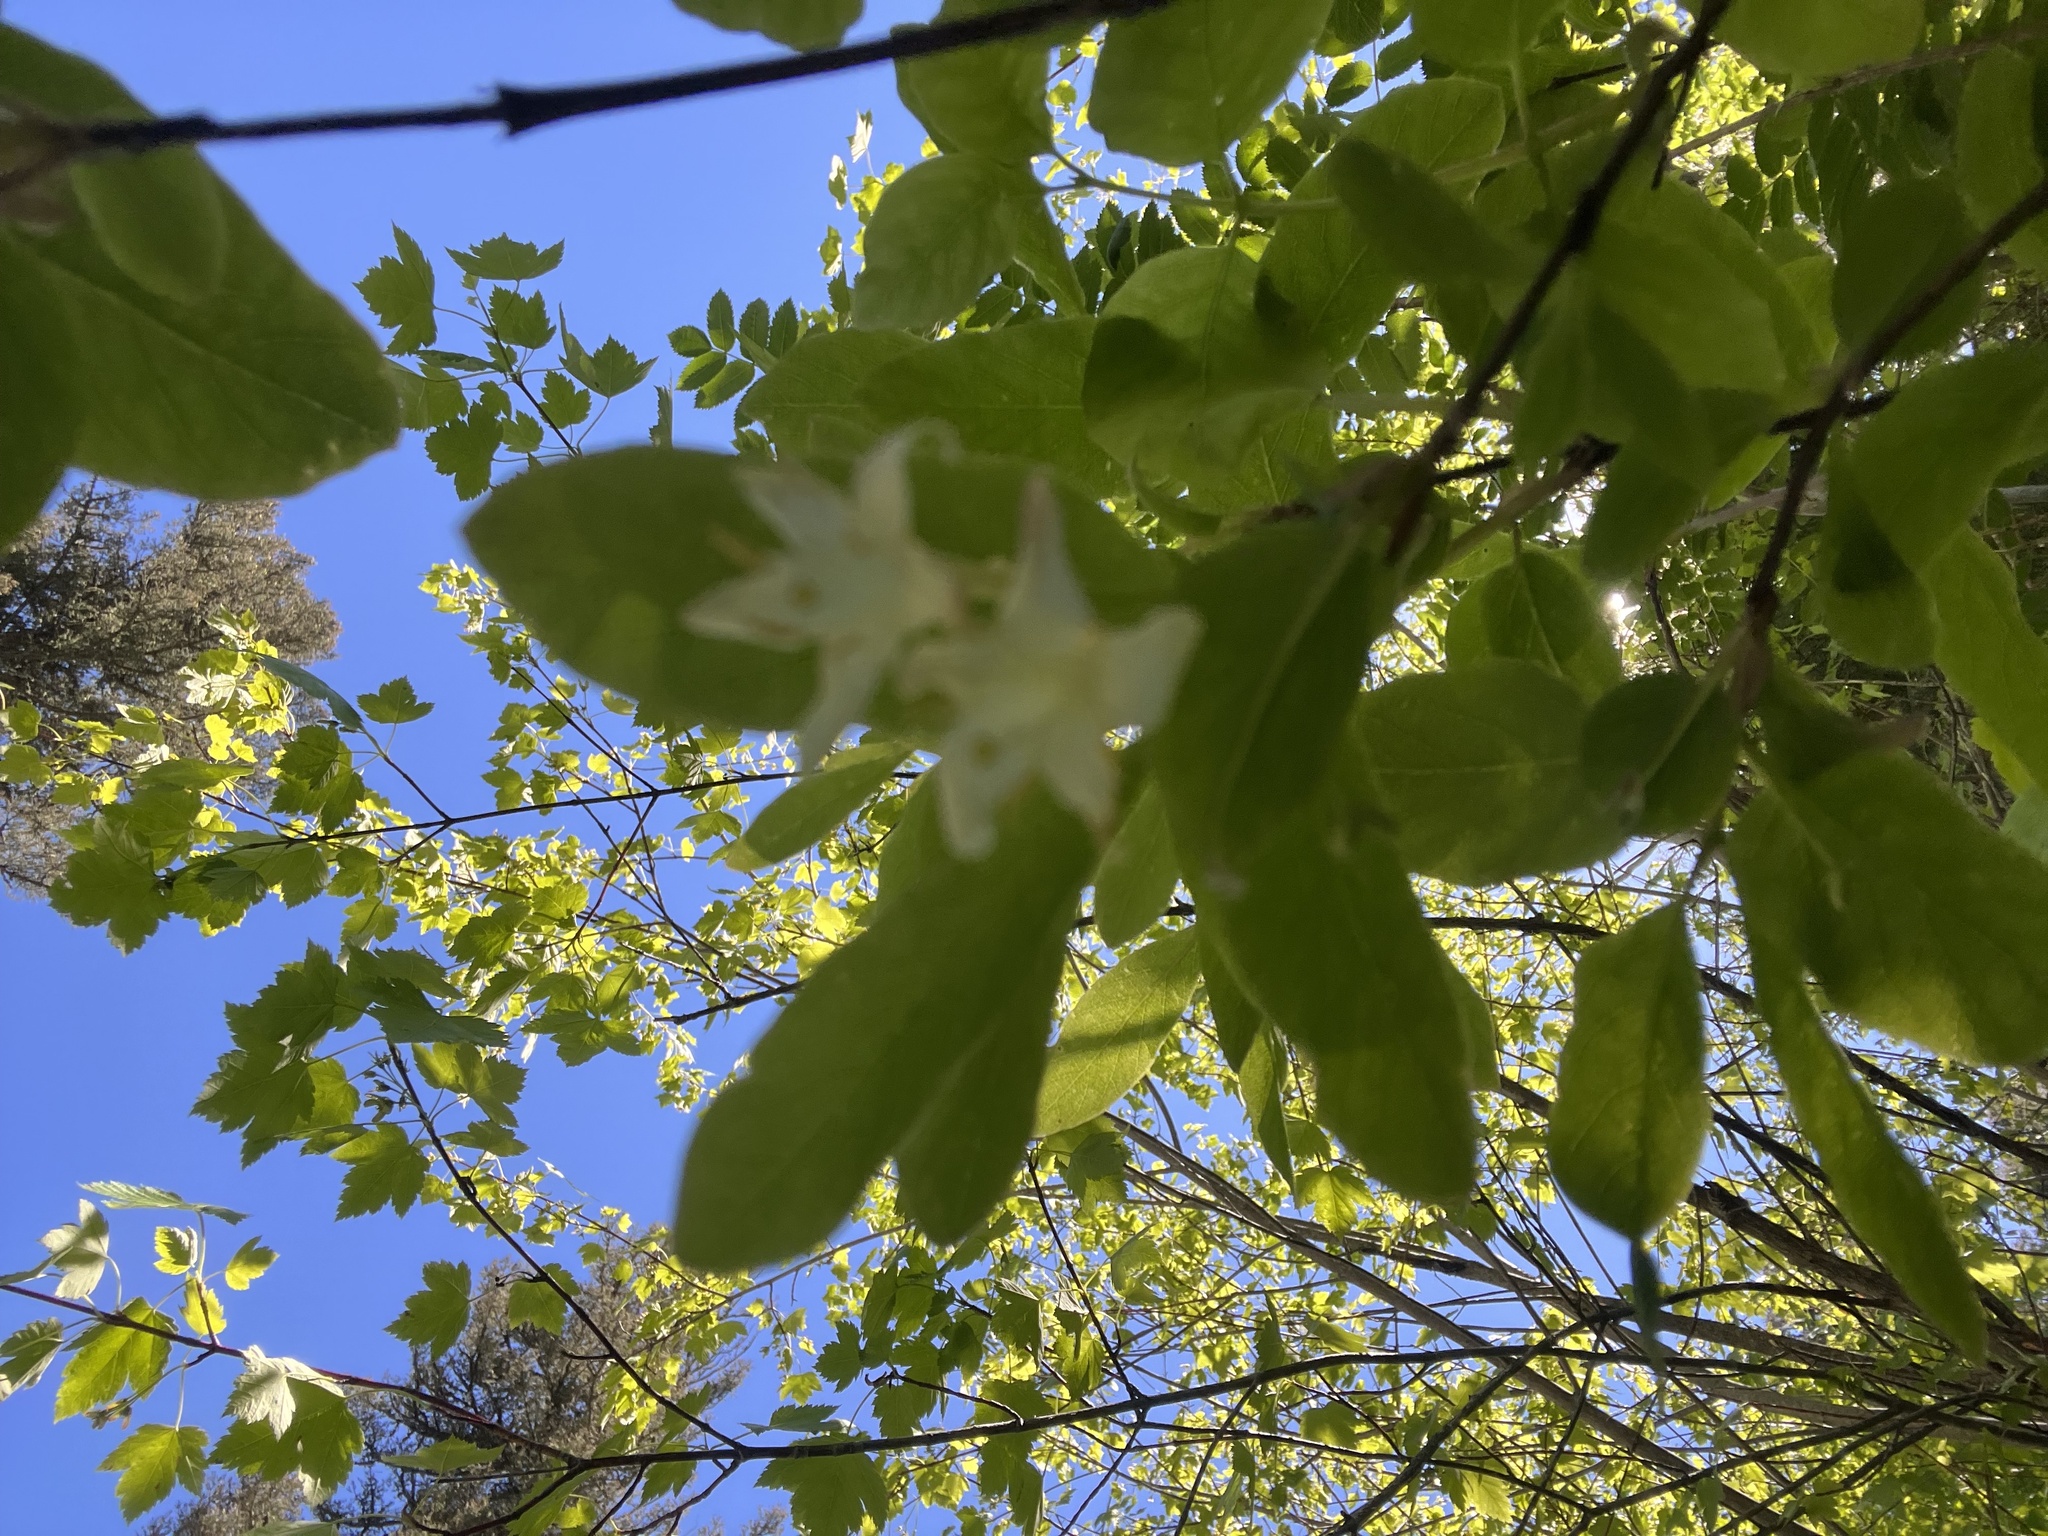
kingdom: Plantae
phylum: Tracheophyta
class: Magnoliopsida
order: Dipsacales
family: Caprifoliaceae
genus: Lonicera
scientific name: Lonicera utahensis
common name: Utah honeysuckle
